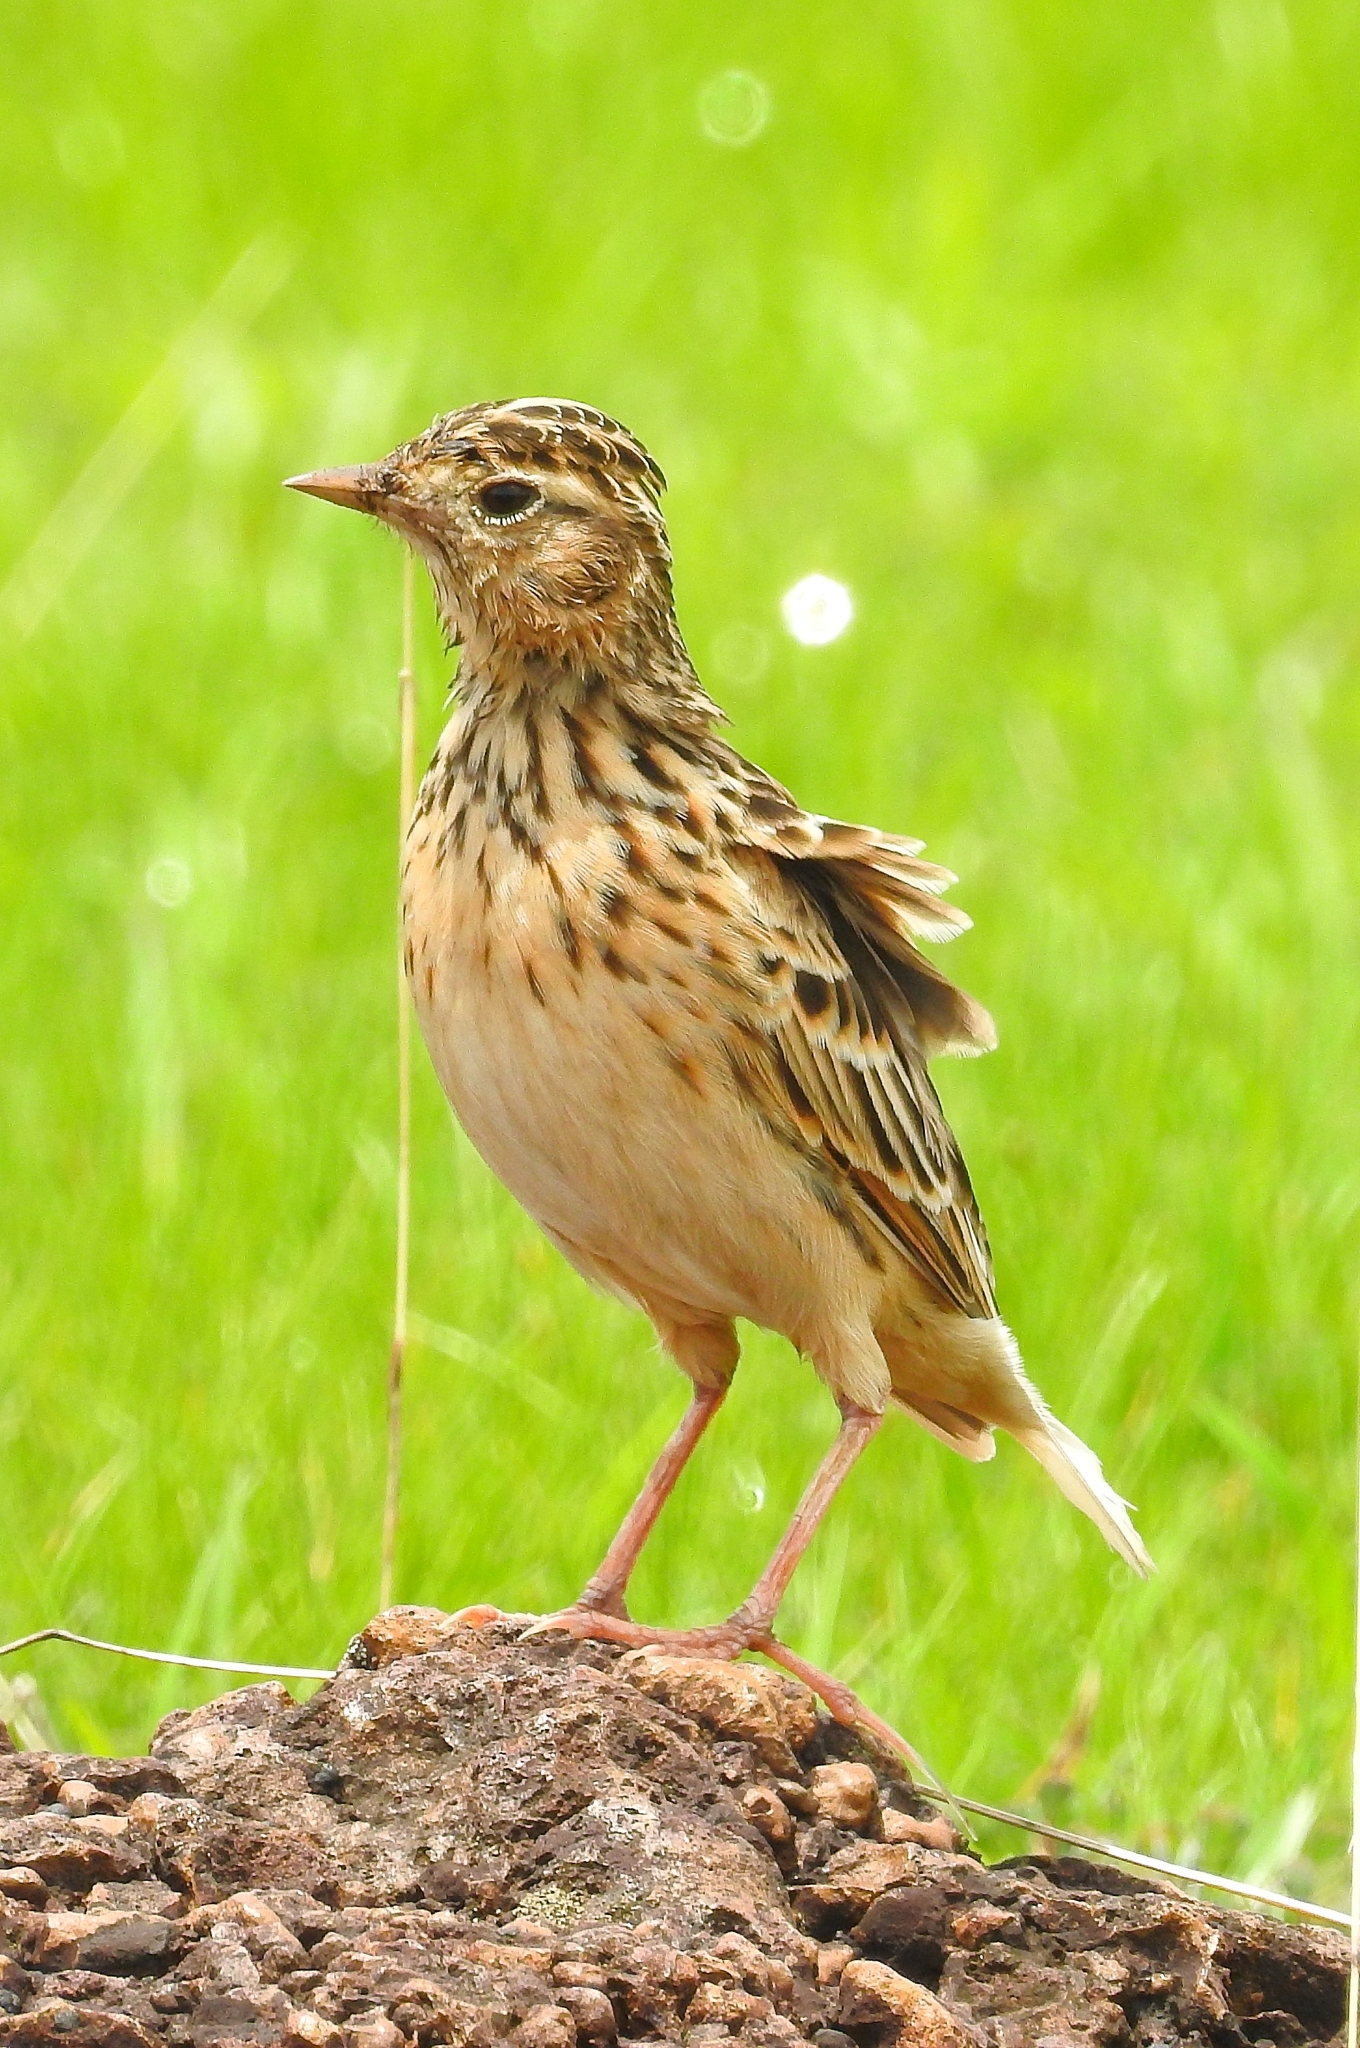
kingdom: Animalia
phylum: Chordata
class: Aves
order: Passeriformes
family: Alaudidae
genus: Alauda
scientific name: Alauda gulgula
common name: Oriental skylark
